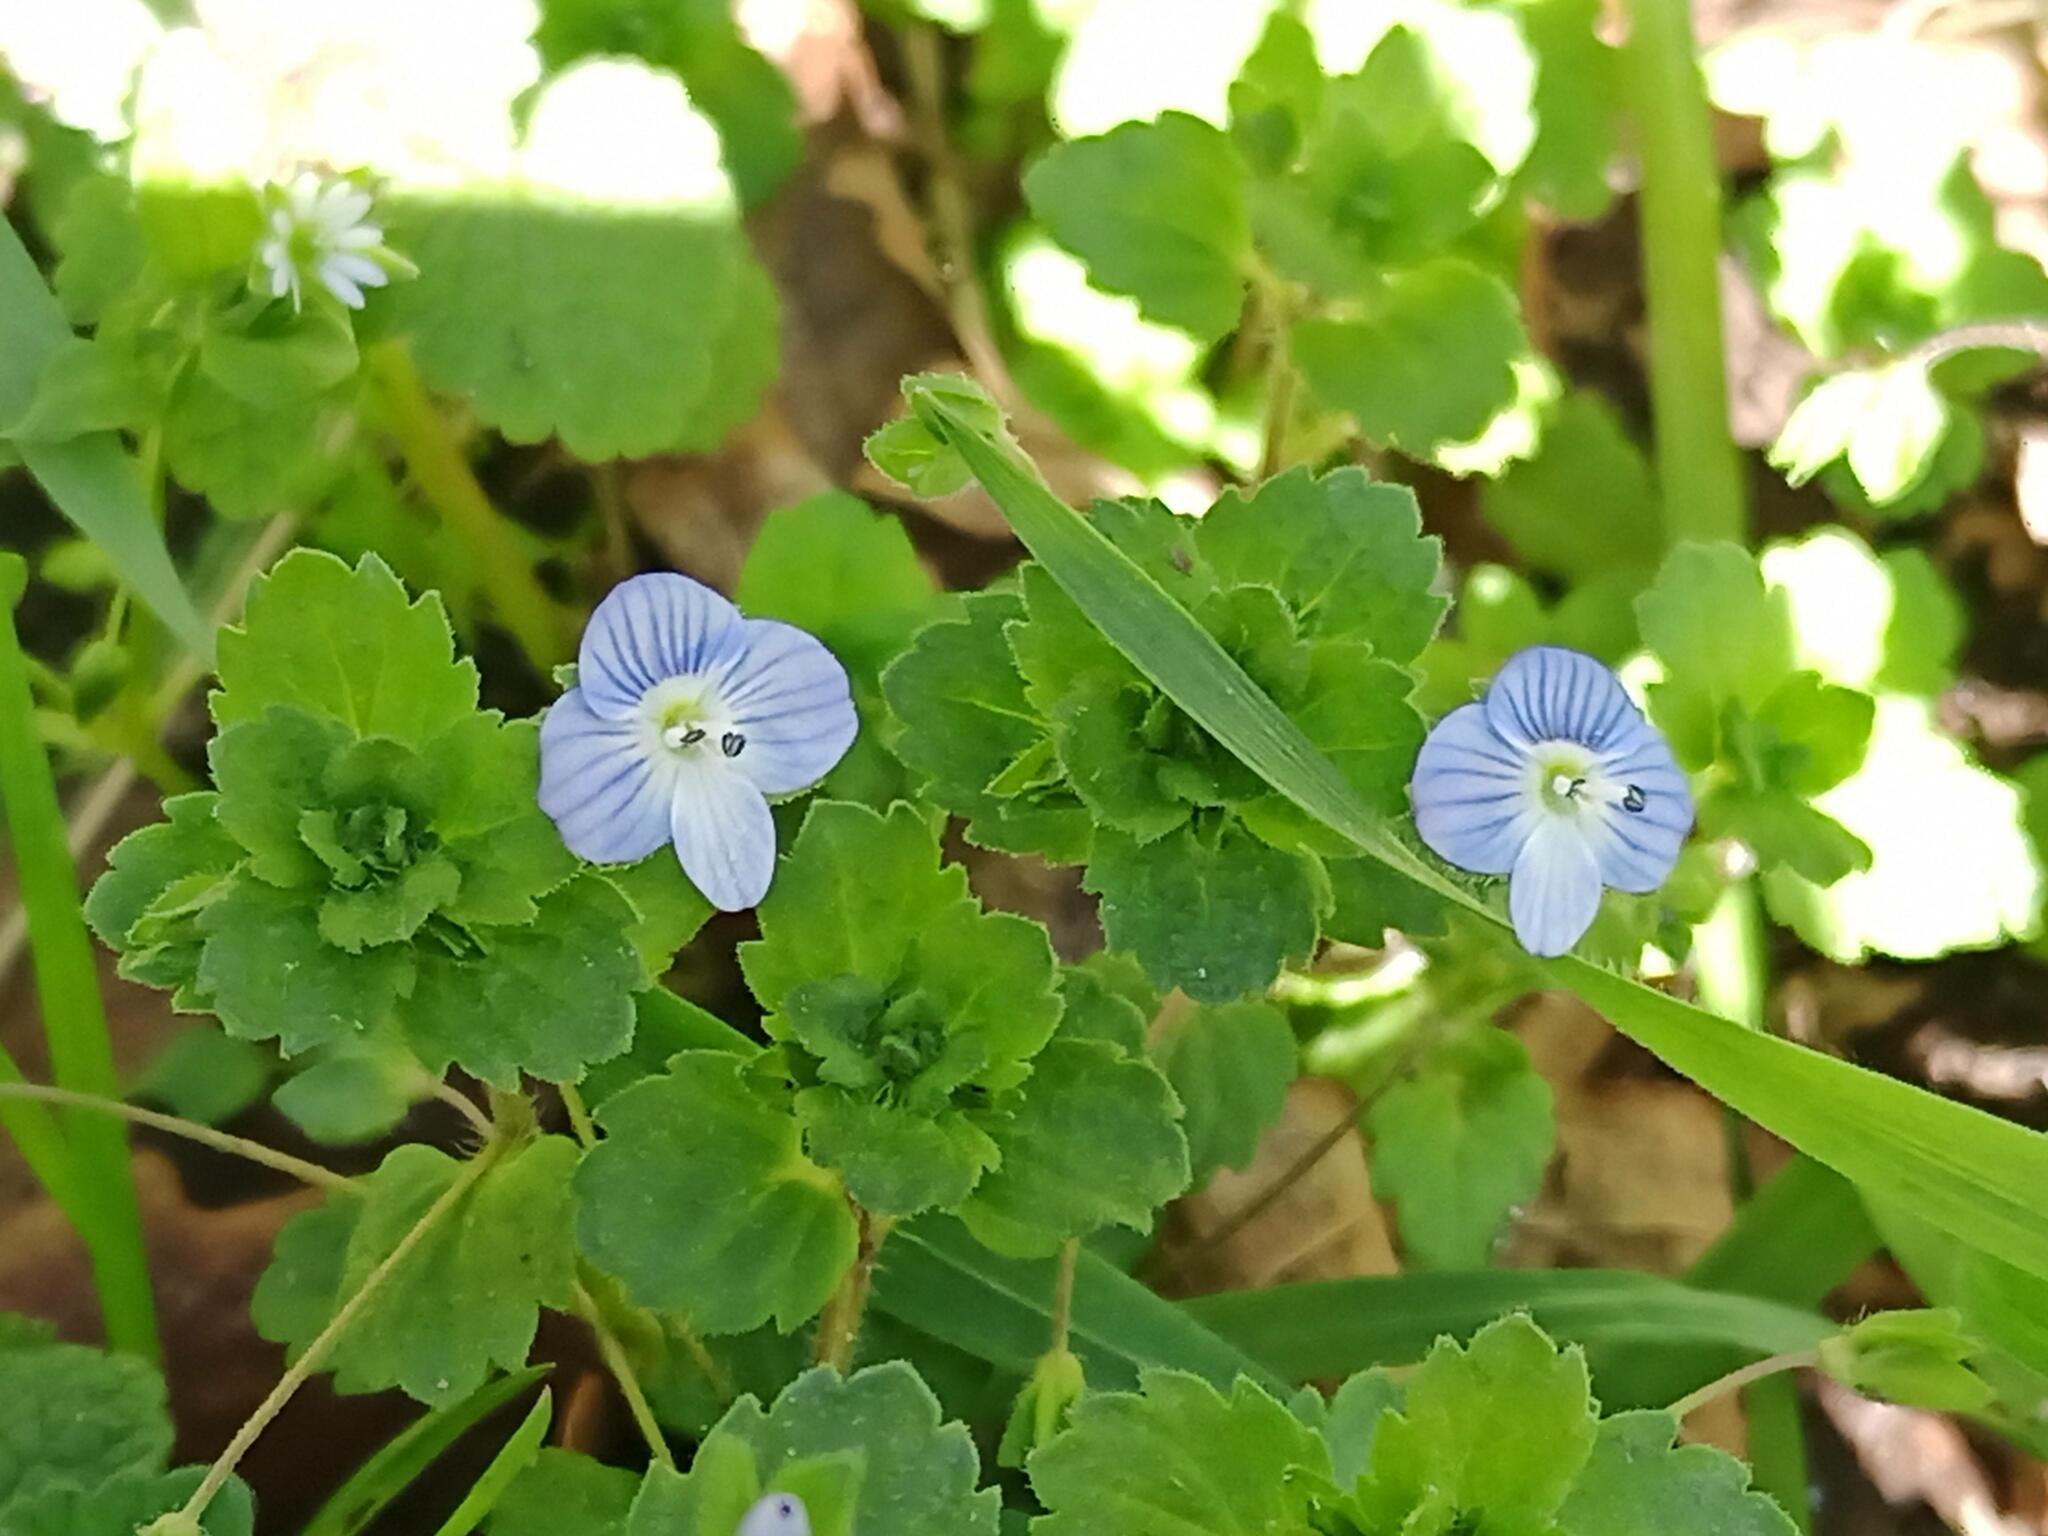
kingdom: Plantae
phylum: Tracheophyta
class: Magnoliopsida
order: Lamiales
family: Plantaginaceae
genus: Veronica
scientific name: Veronica persica
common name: Common field-speedwell
